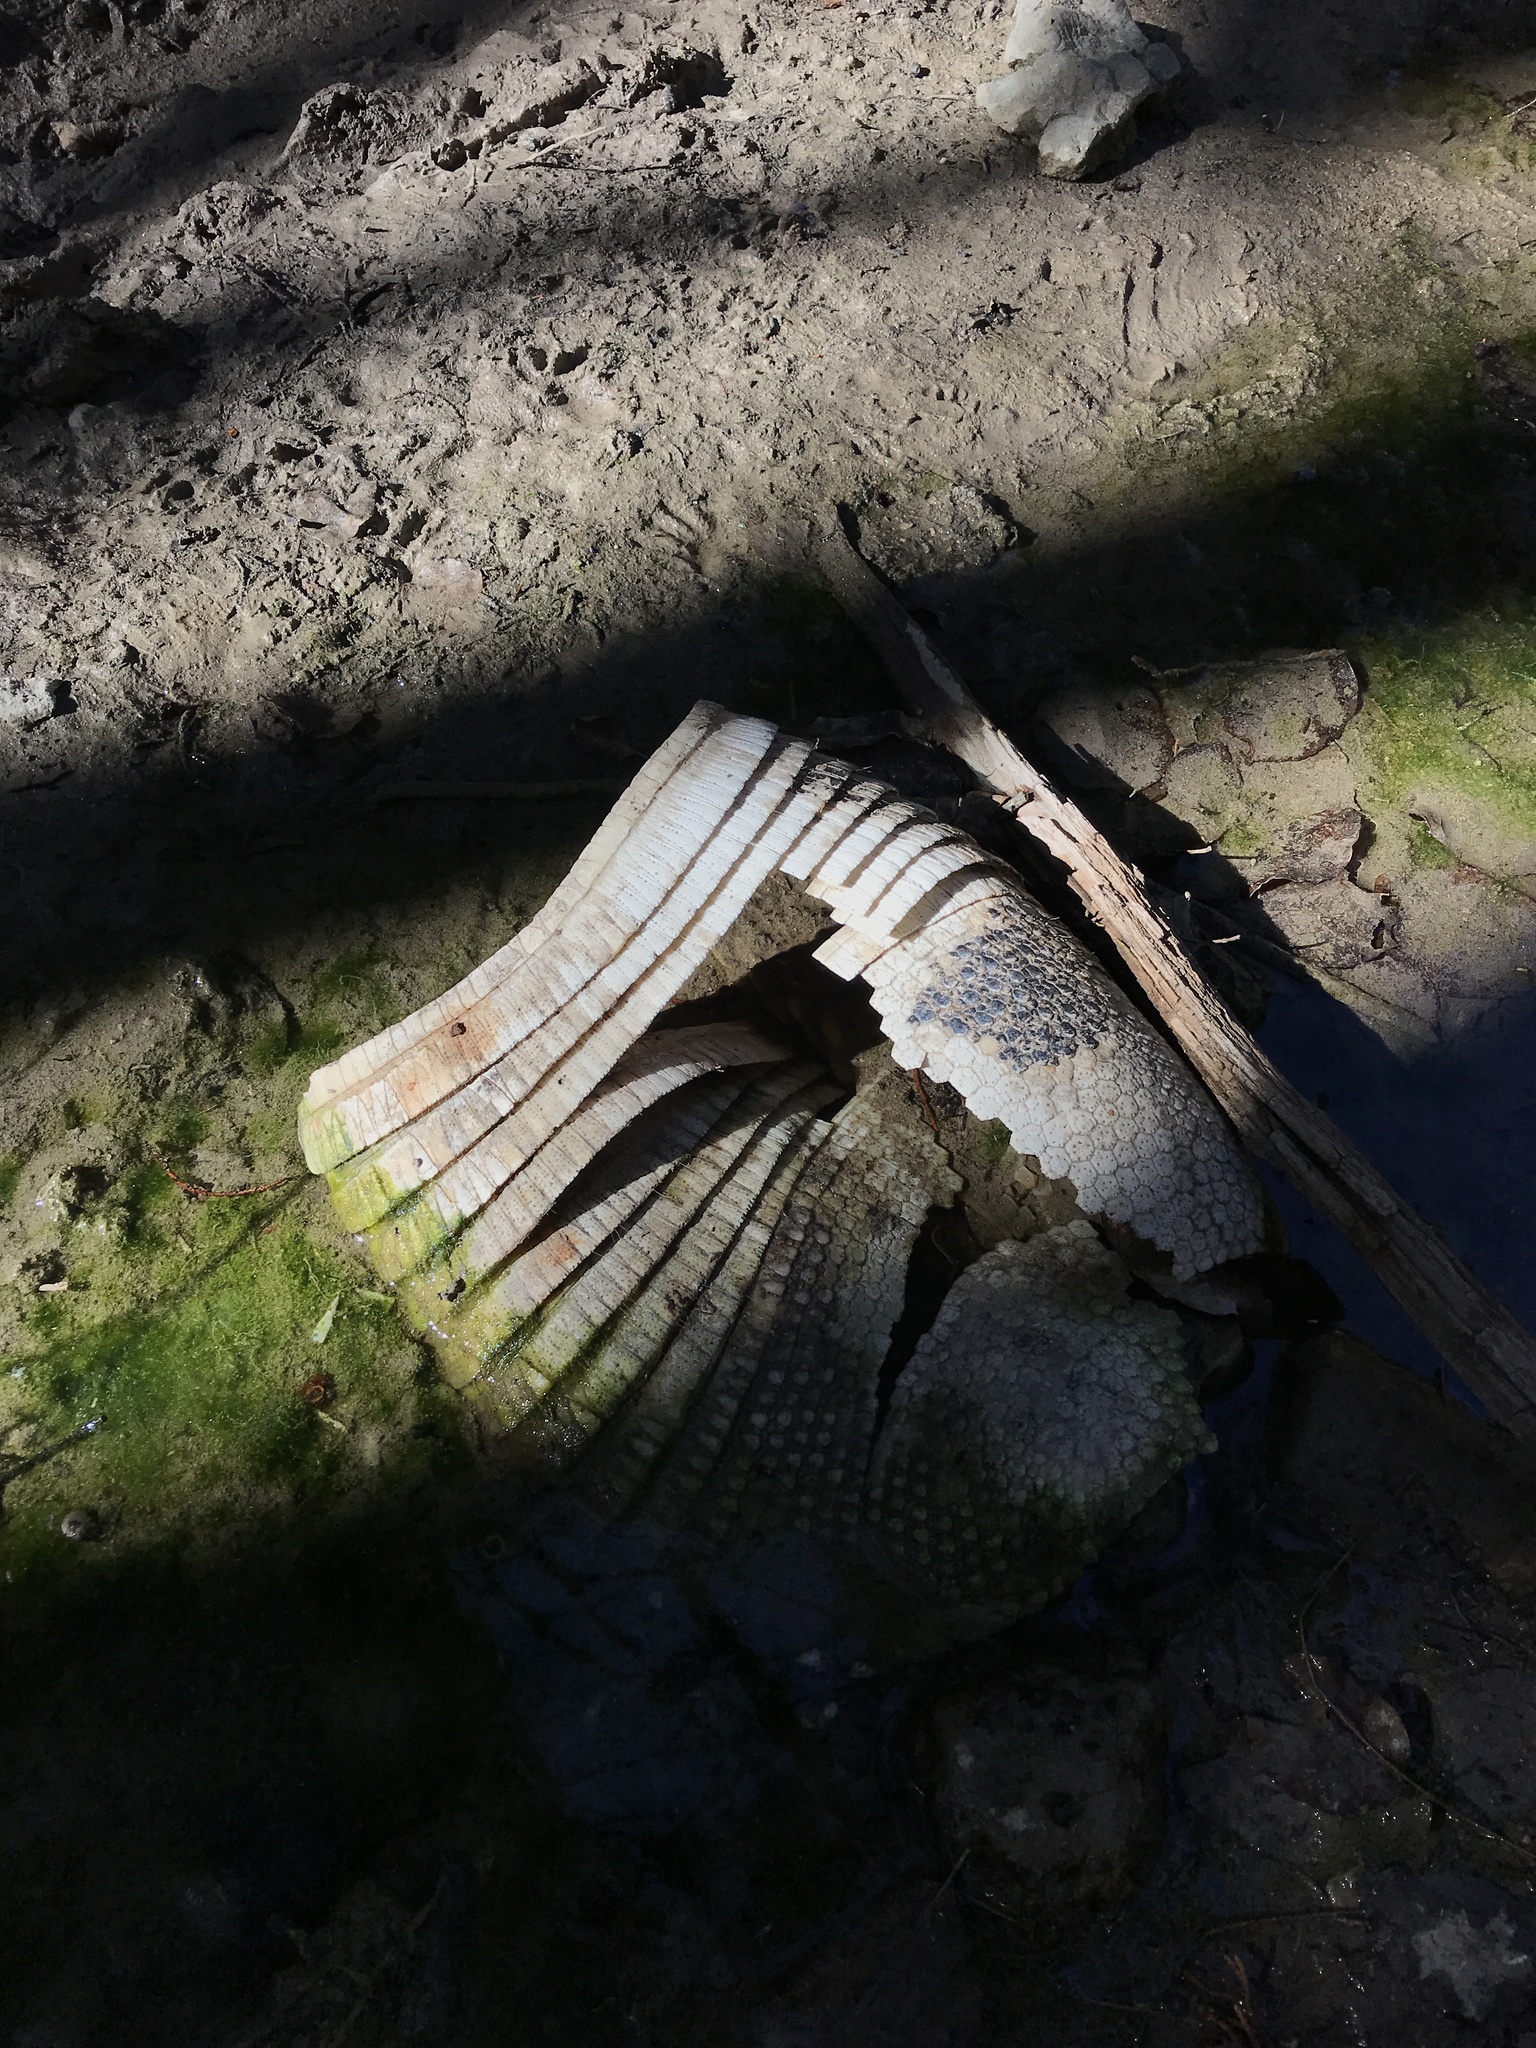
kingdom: Animalia
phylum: Chordata
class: Mammalia
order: Cingulata
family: Dasypodidae
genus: Dasypus
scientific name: Dasypus novemcinctus
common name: Nine-banded armadillo
